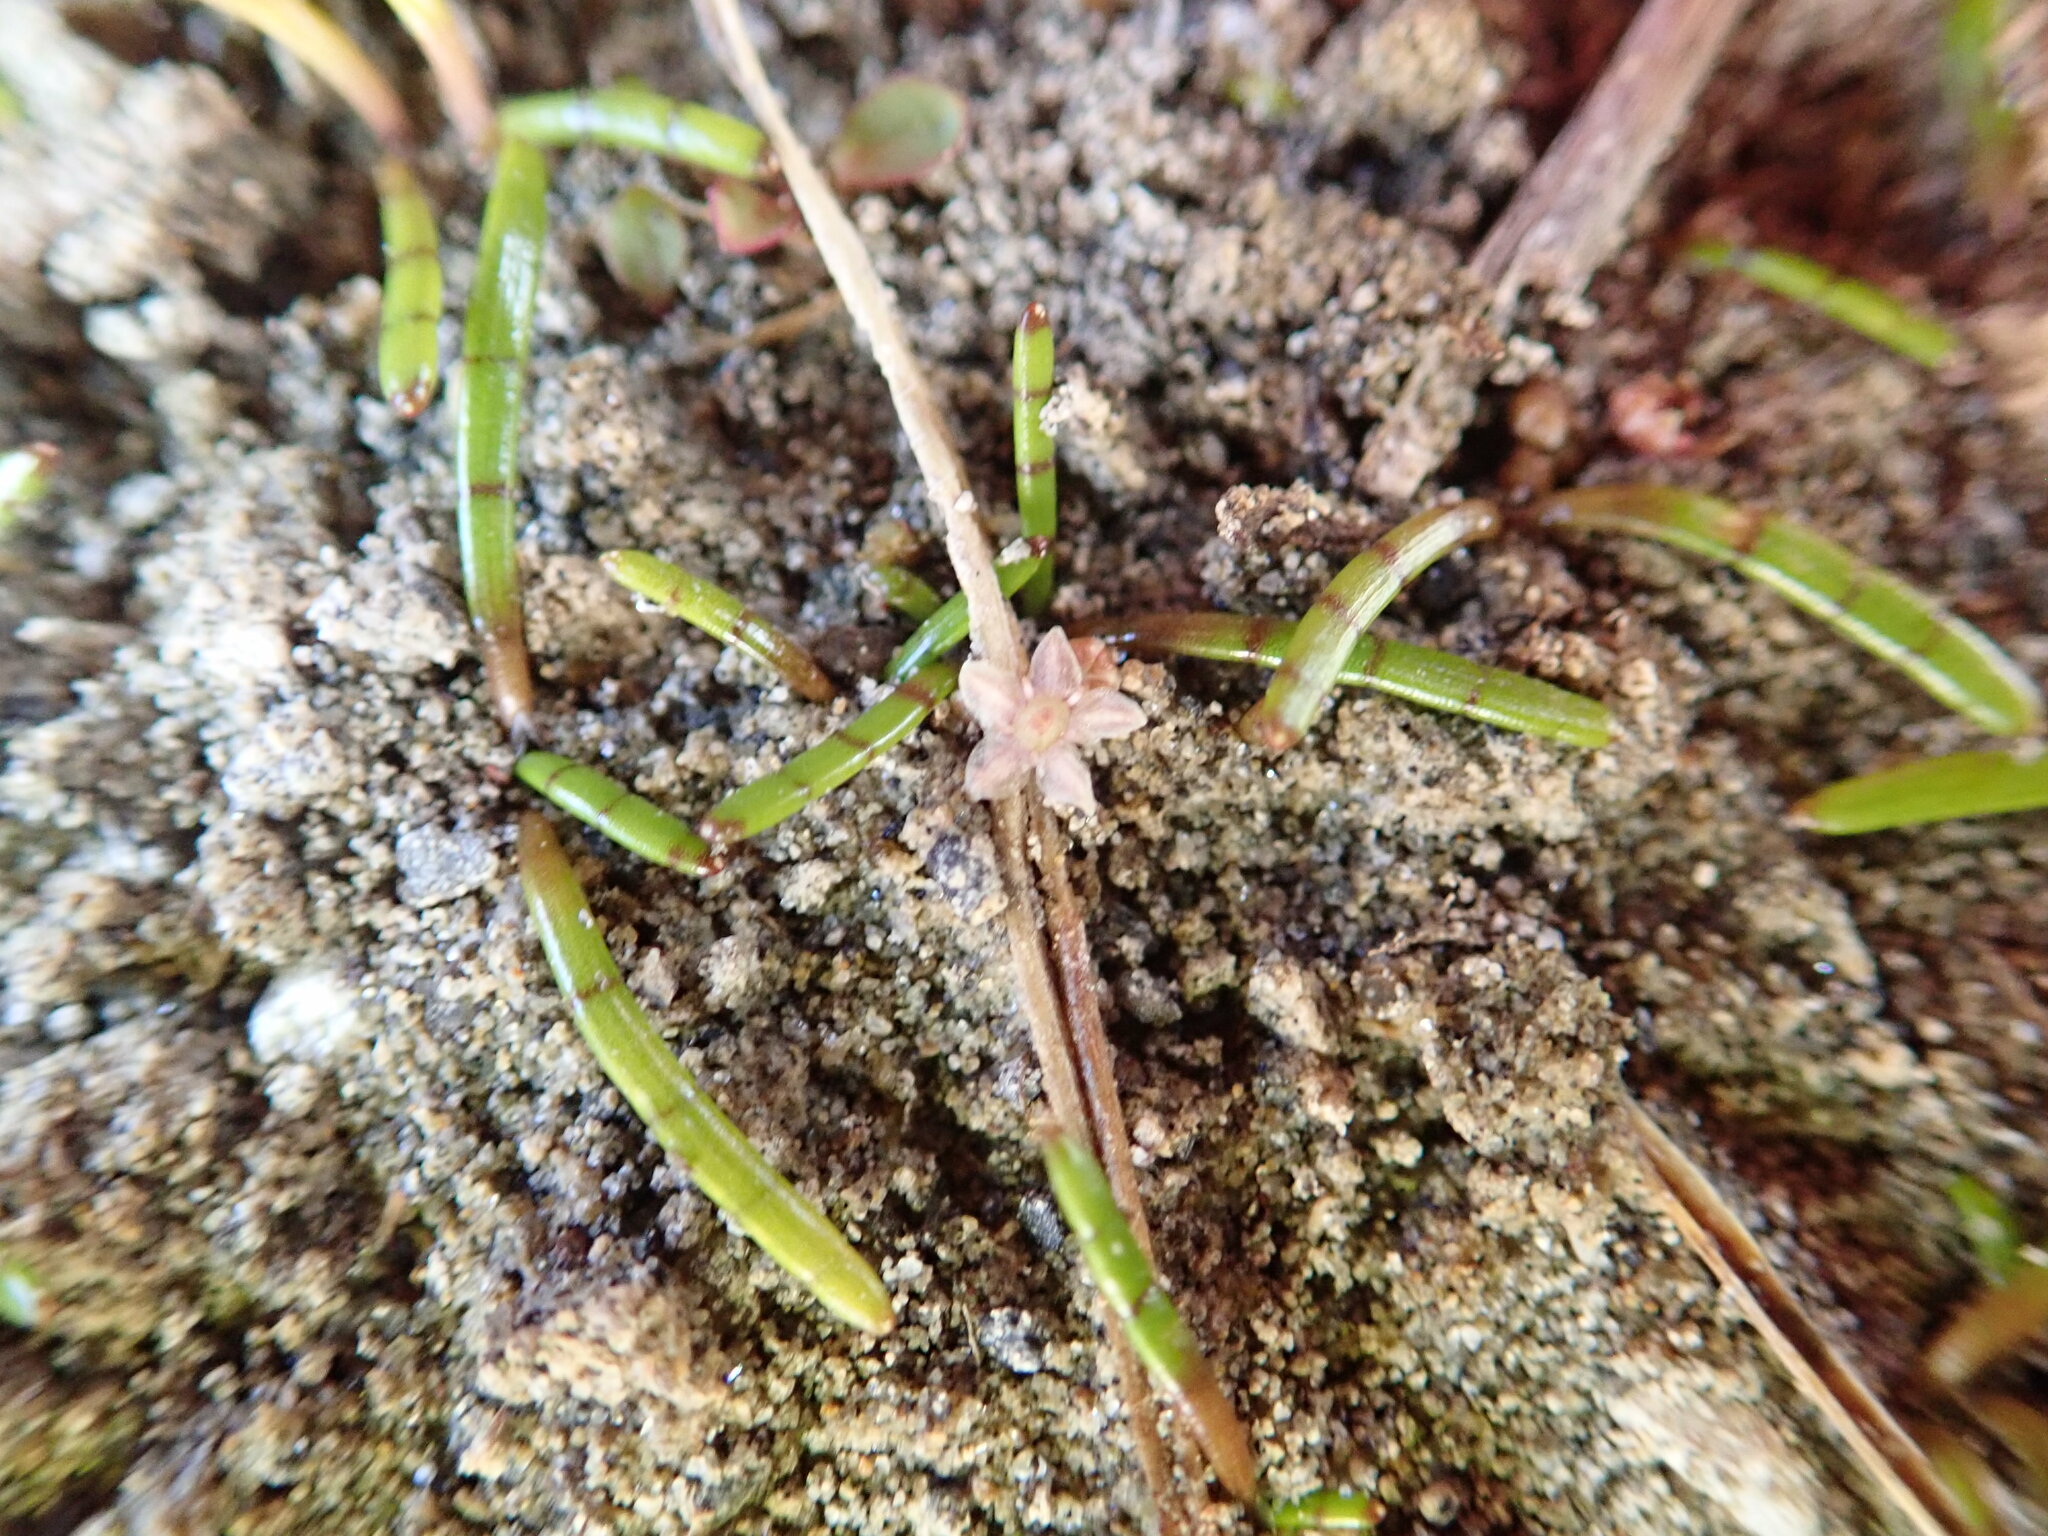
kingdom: Plantae
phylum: Tracheophyta
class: Magnoliopsida
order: Apiales
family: Apiaceae
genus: Lilaeopsis
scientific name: Lilaeopsis novae-zelandiae
